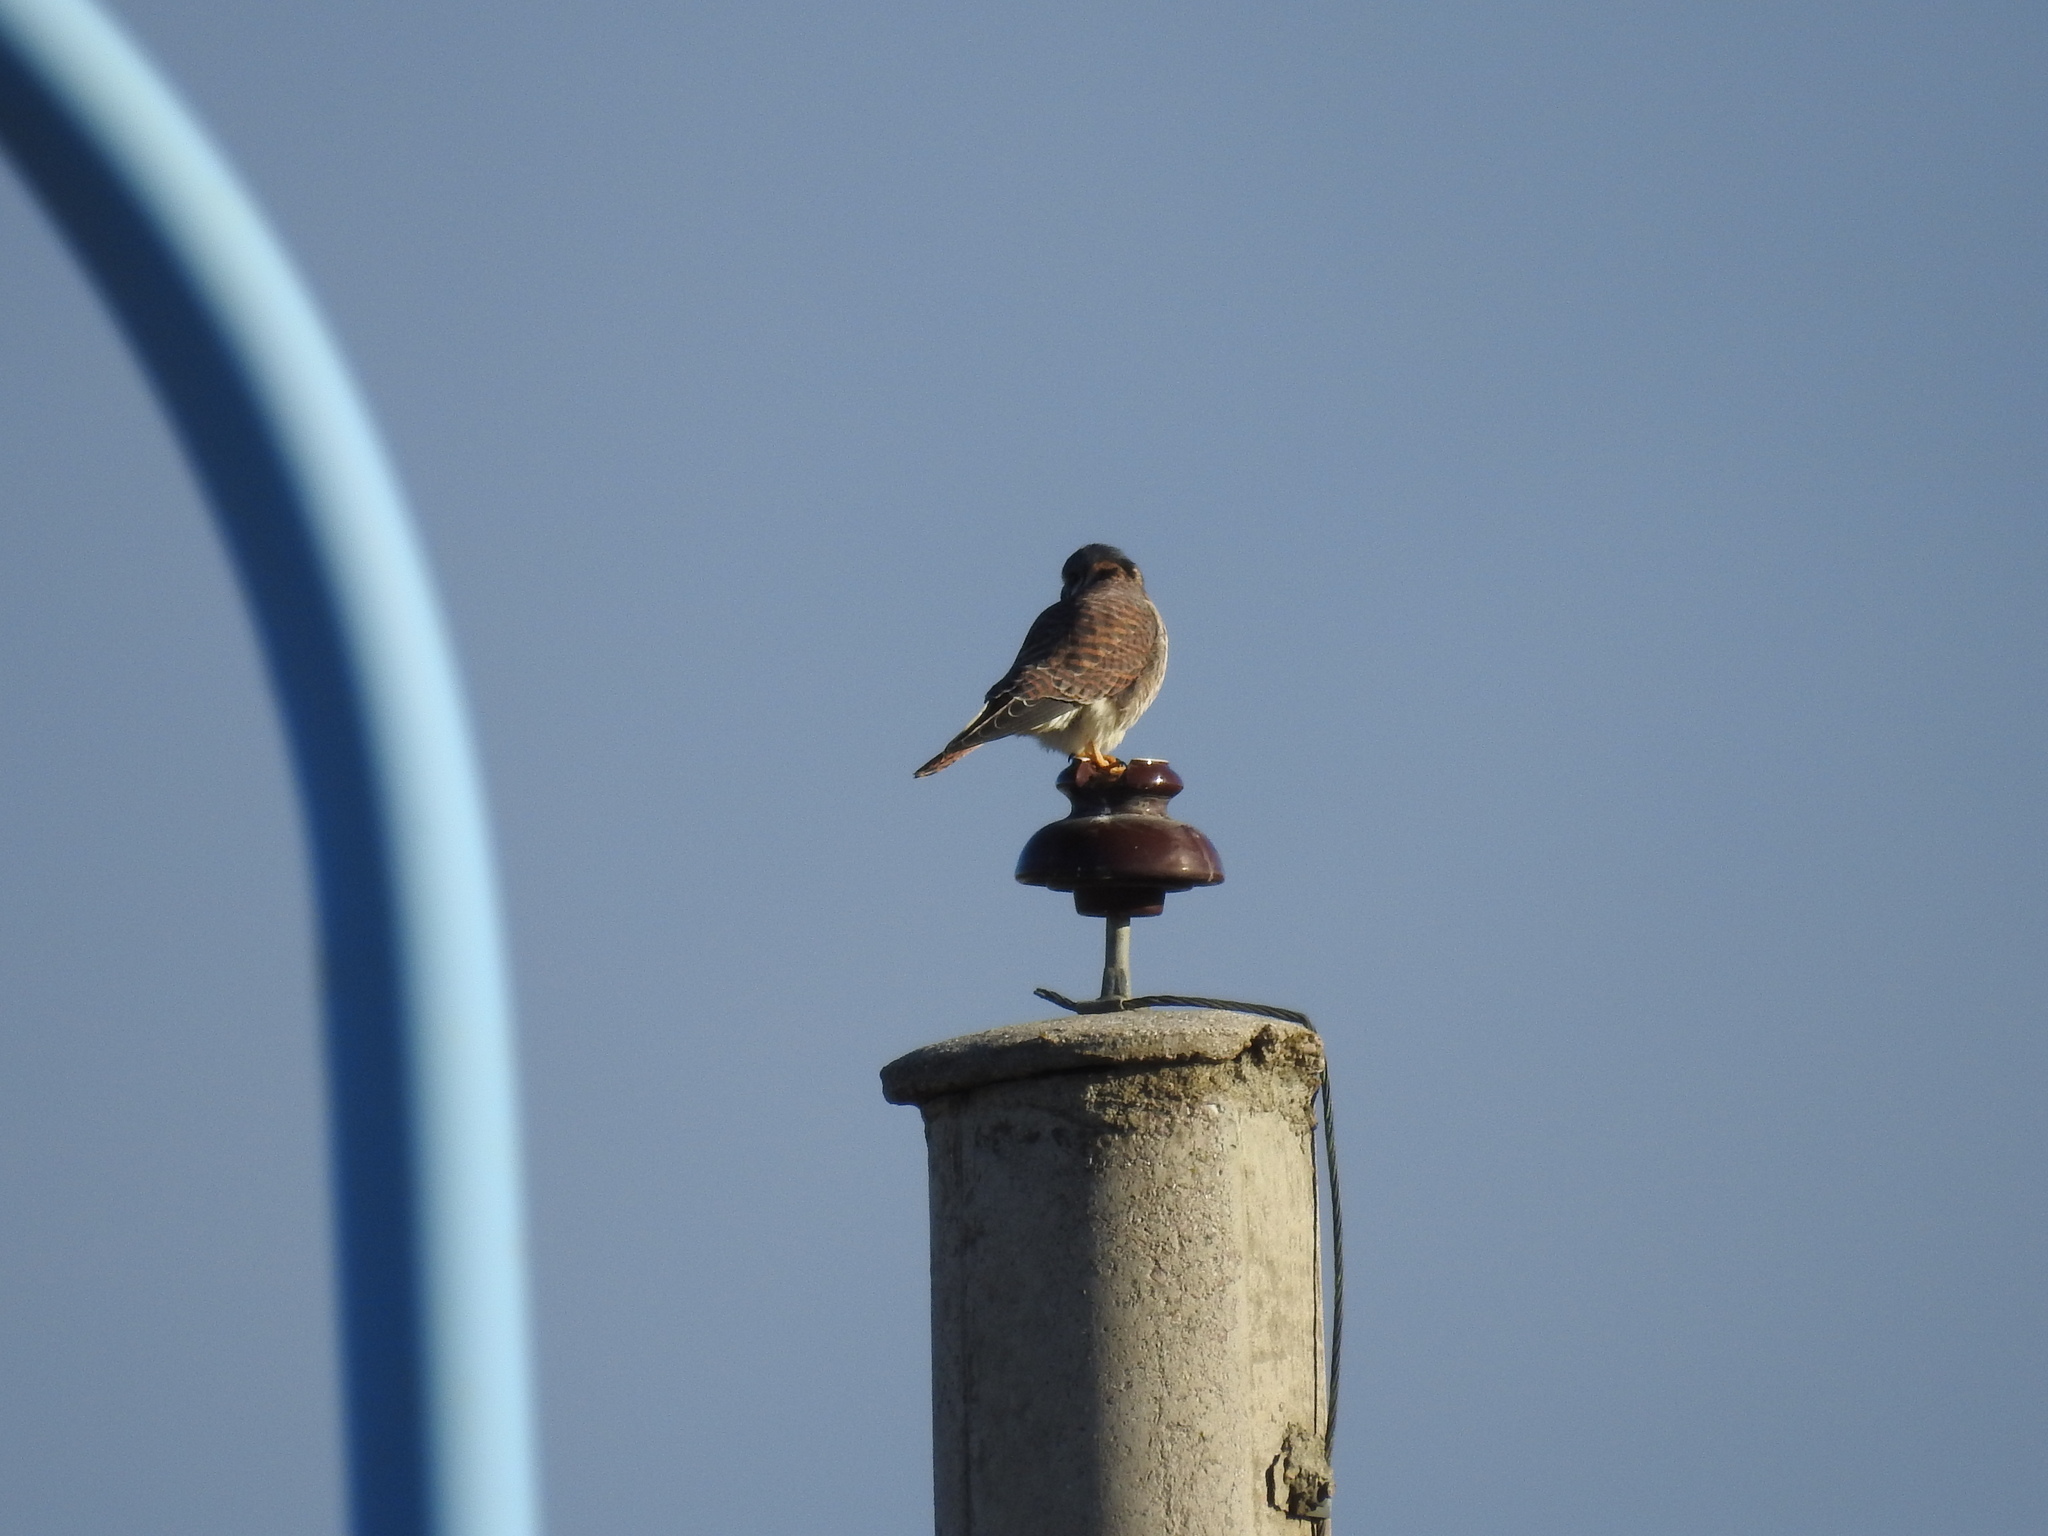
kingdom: Animalia
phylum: Chordata
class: Aves
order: Falconiformes
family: Falconidae
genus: Falco
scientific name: Falco sparverius
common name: American kestrel
